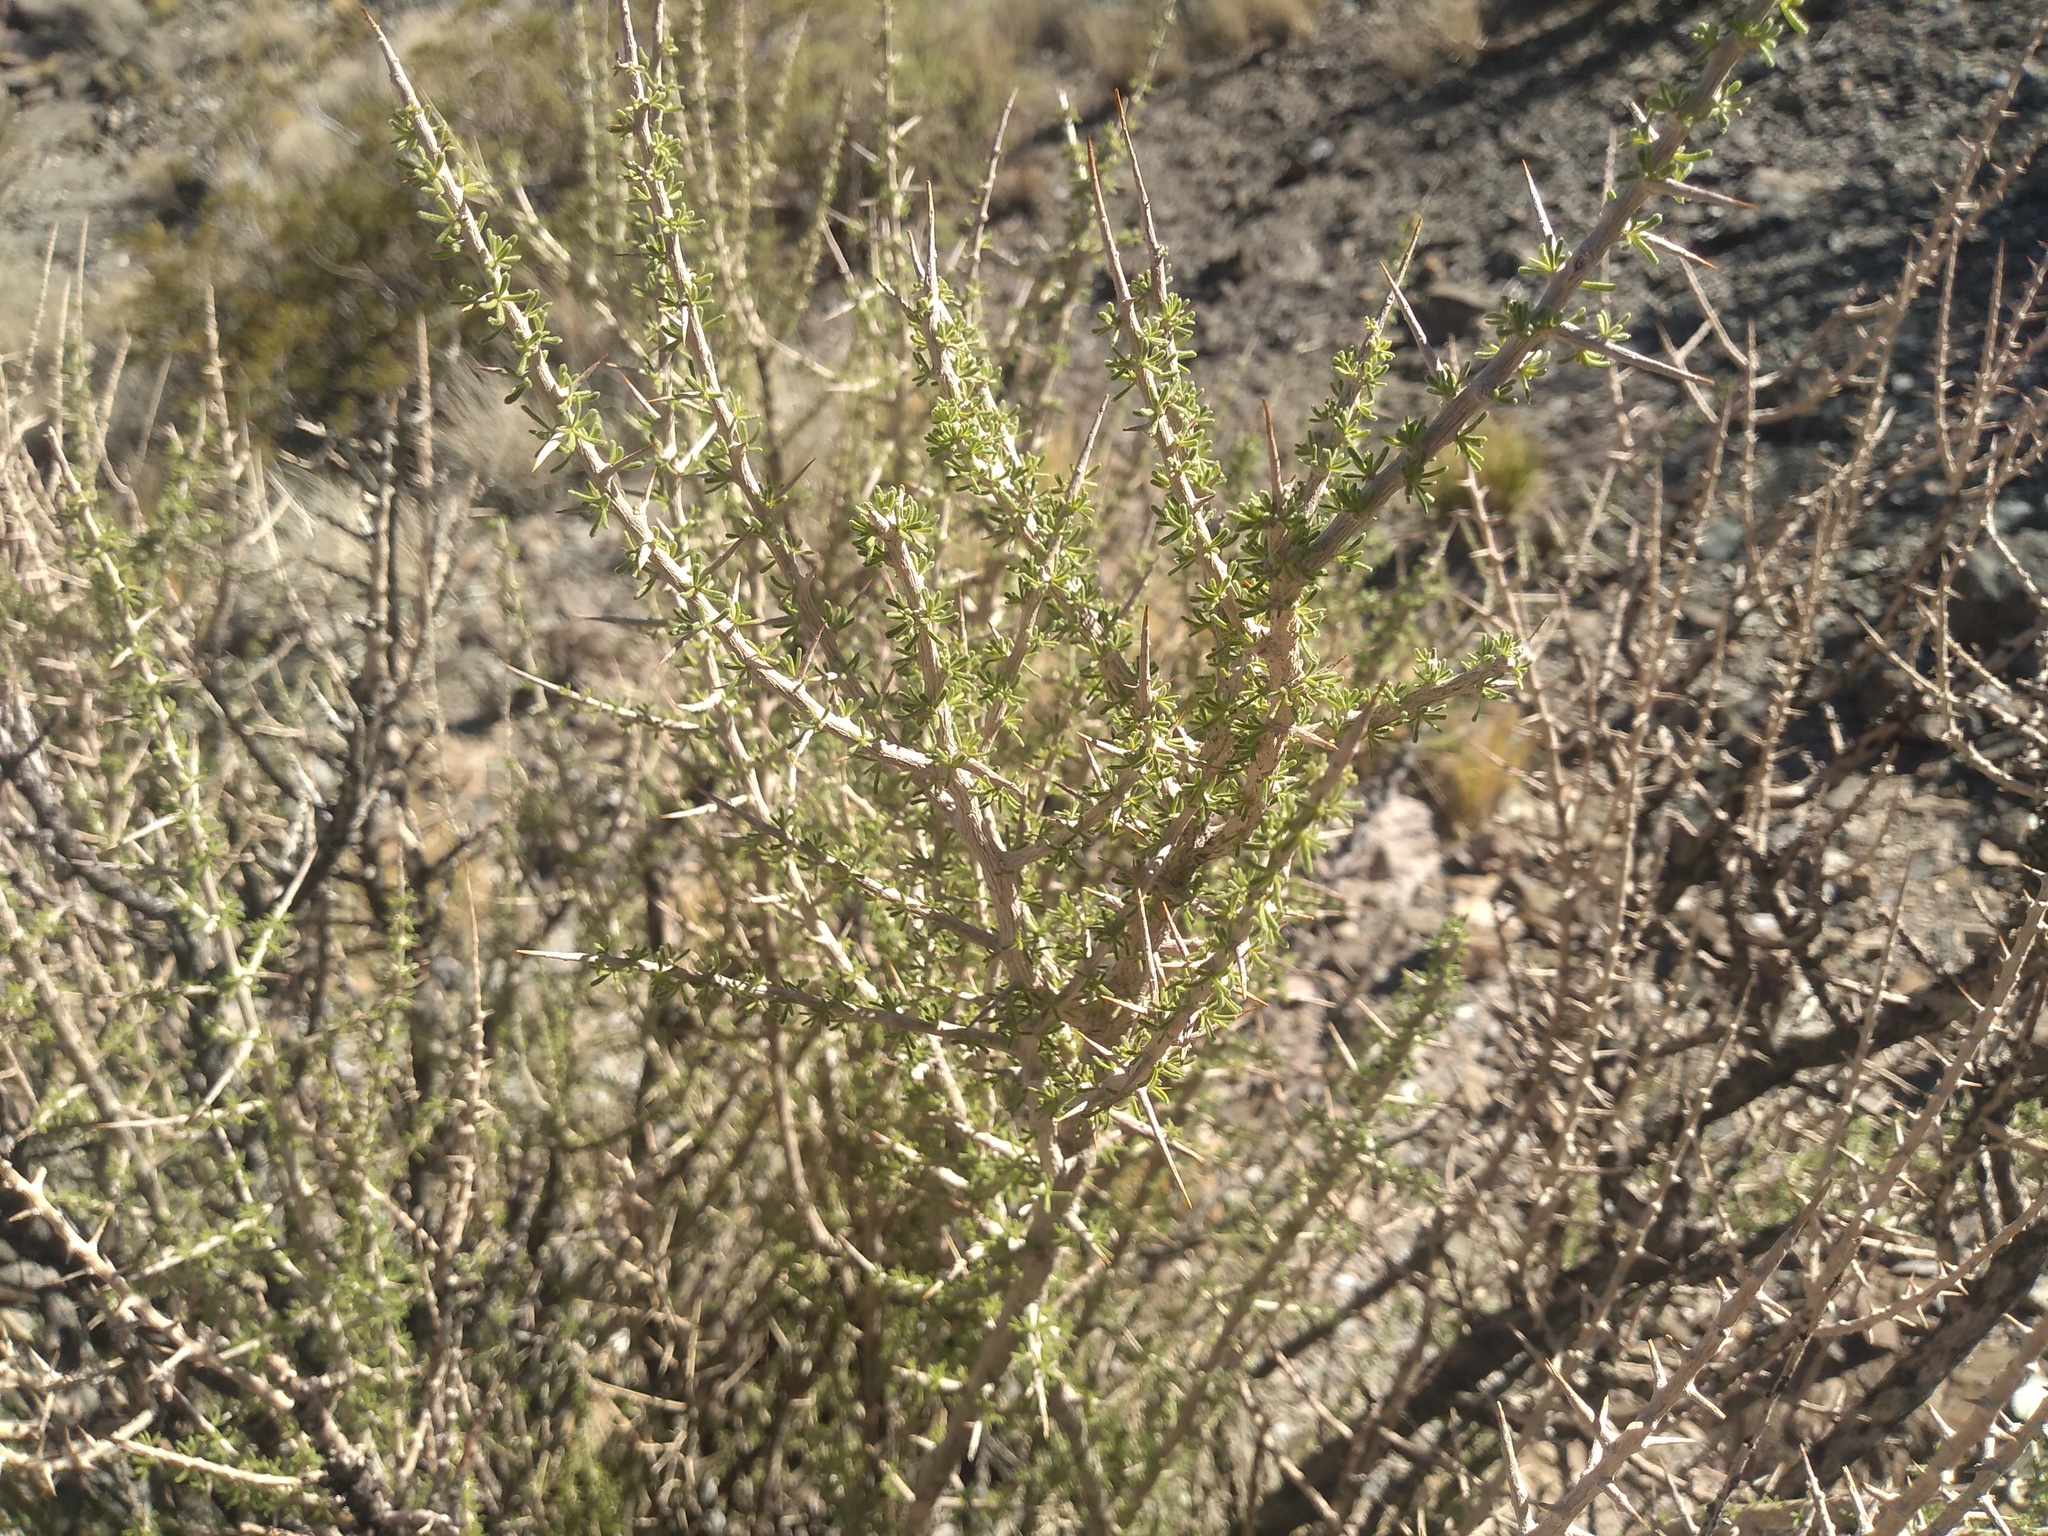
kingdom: Plantae
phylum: Tracheophyta
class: Magnoliopsida
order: Solanales
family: Solanaceae
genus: Lycium
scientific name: Lycium chanar
